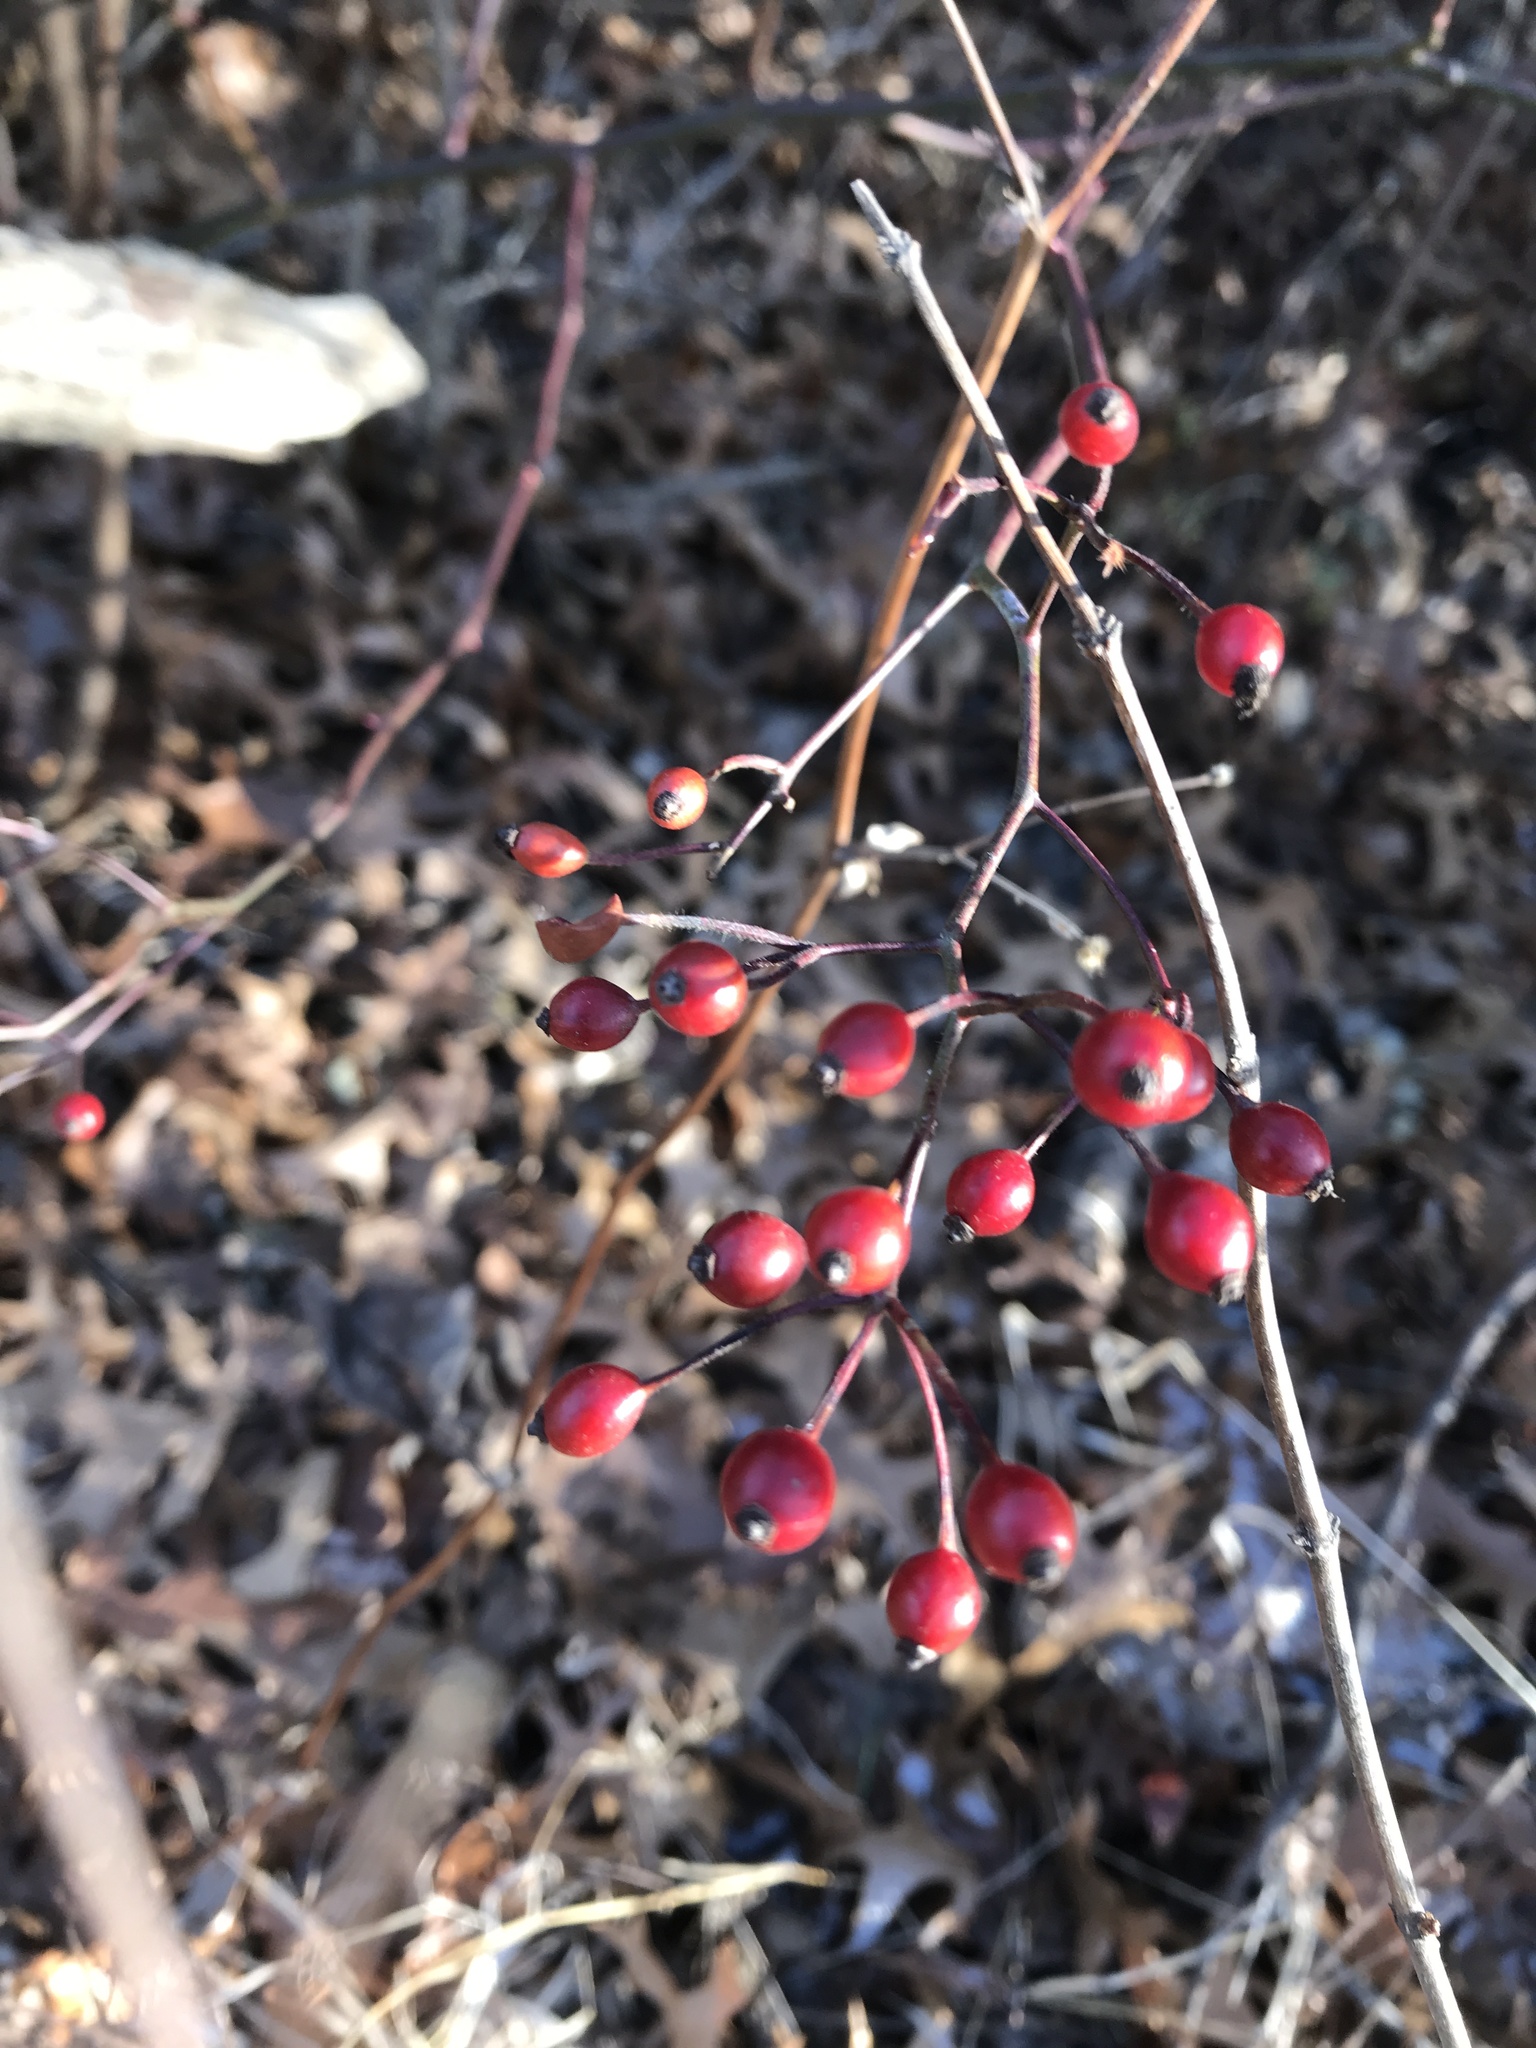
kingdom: Plantae
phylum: Tracheophyta
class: Magnoliopsida
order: Rosales
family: Rosaceae
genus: Rosa
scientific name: Rosa multiflora
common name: Multiflora rose
